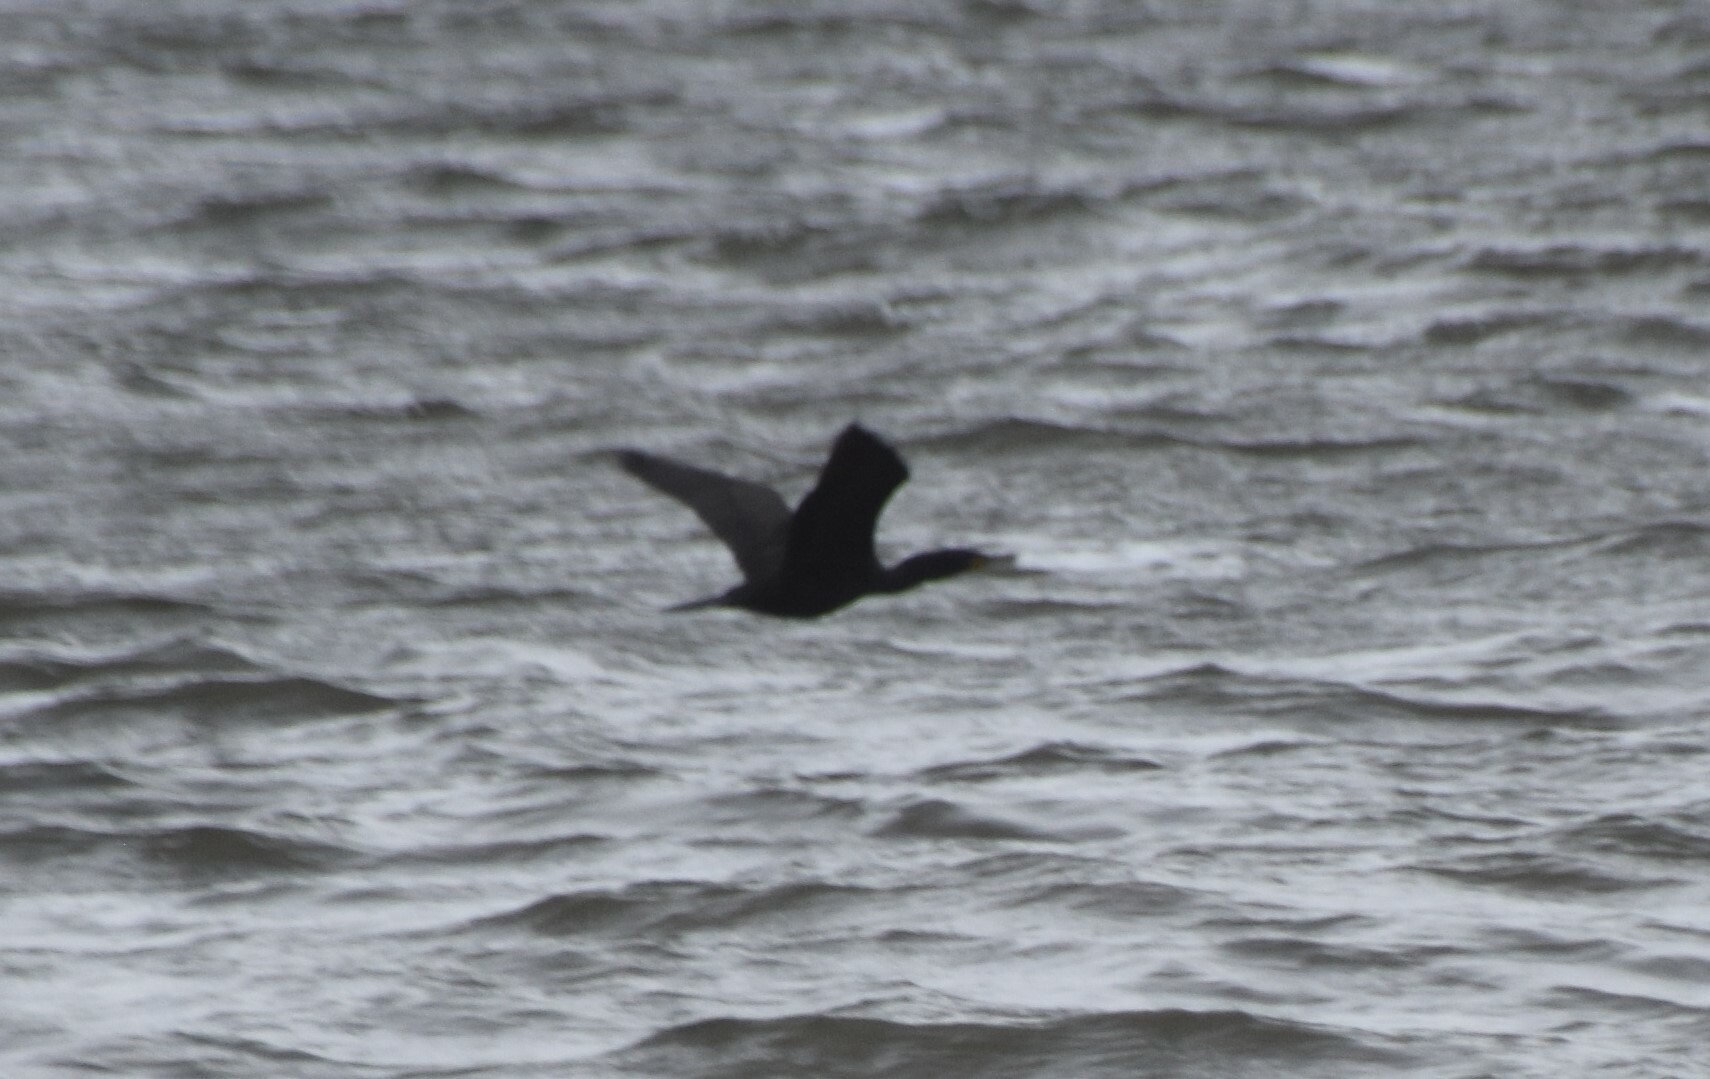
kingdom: Animalia
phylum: Chordata
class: Aves
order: Suliformes
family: Phalacrocoracidae
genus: Phalacrocorax
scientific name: Phalacrocorax auritus
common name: Double-crested cormorant
